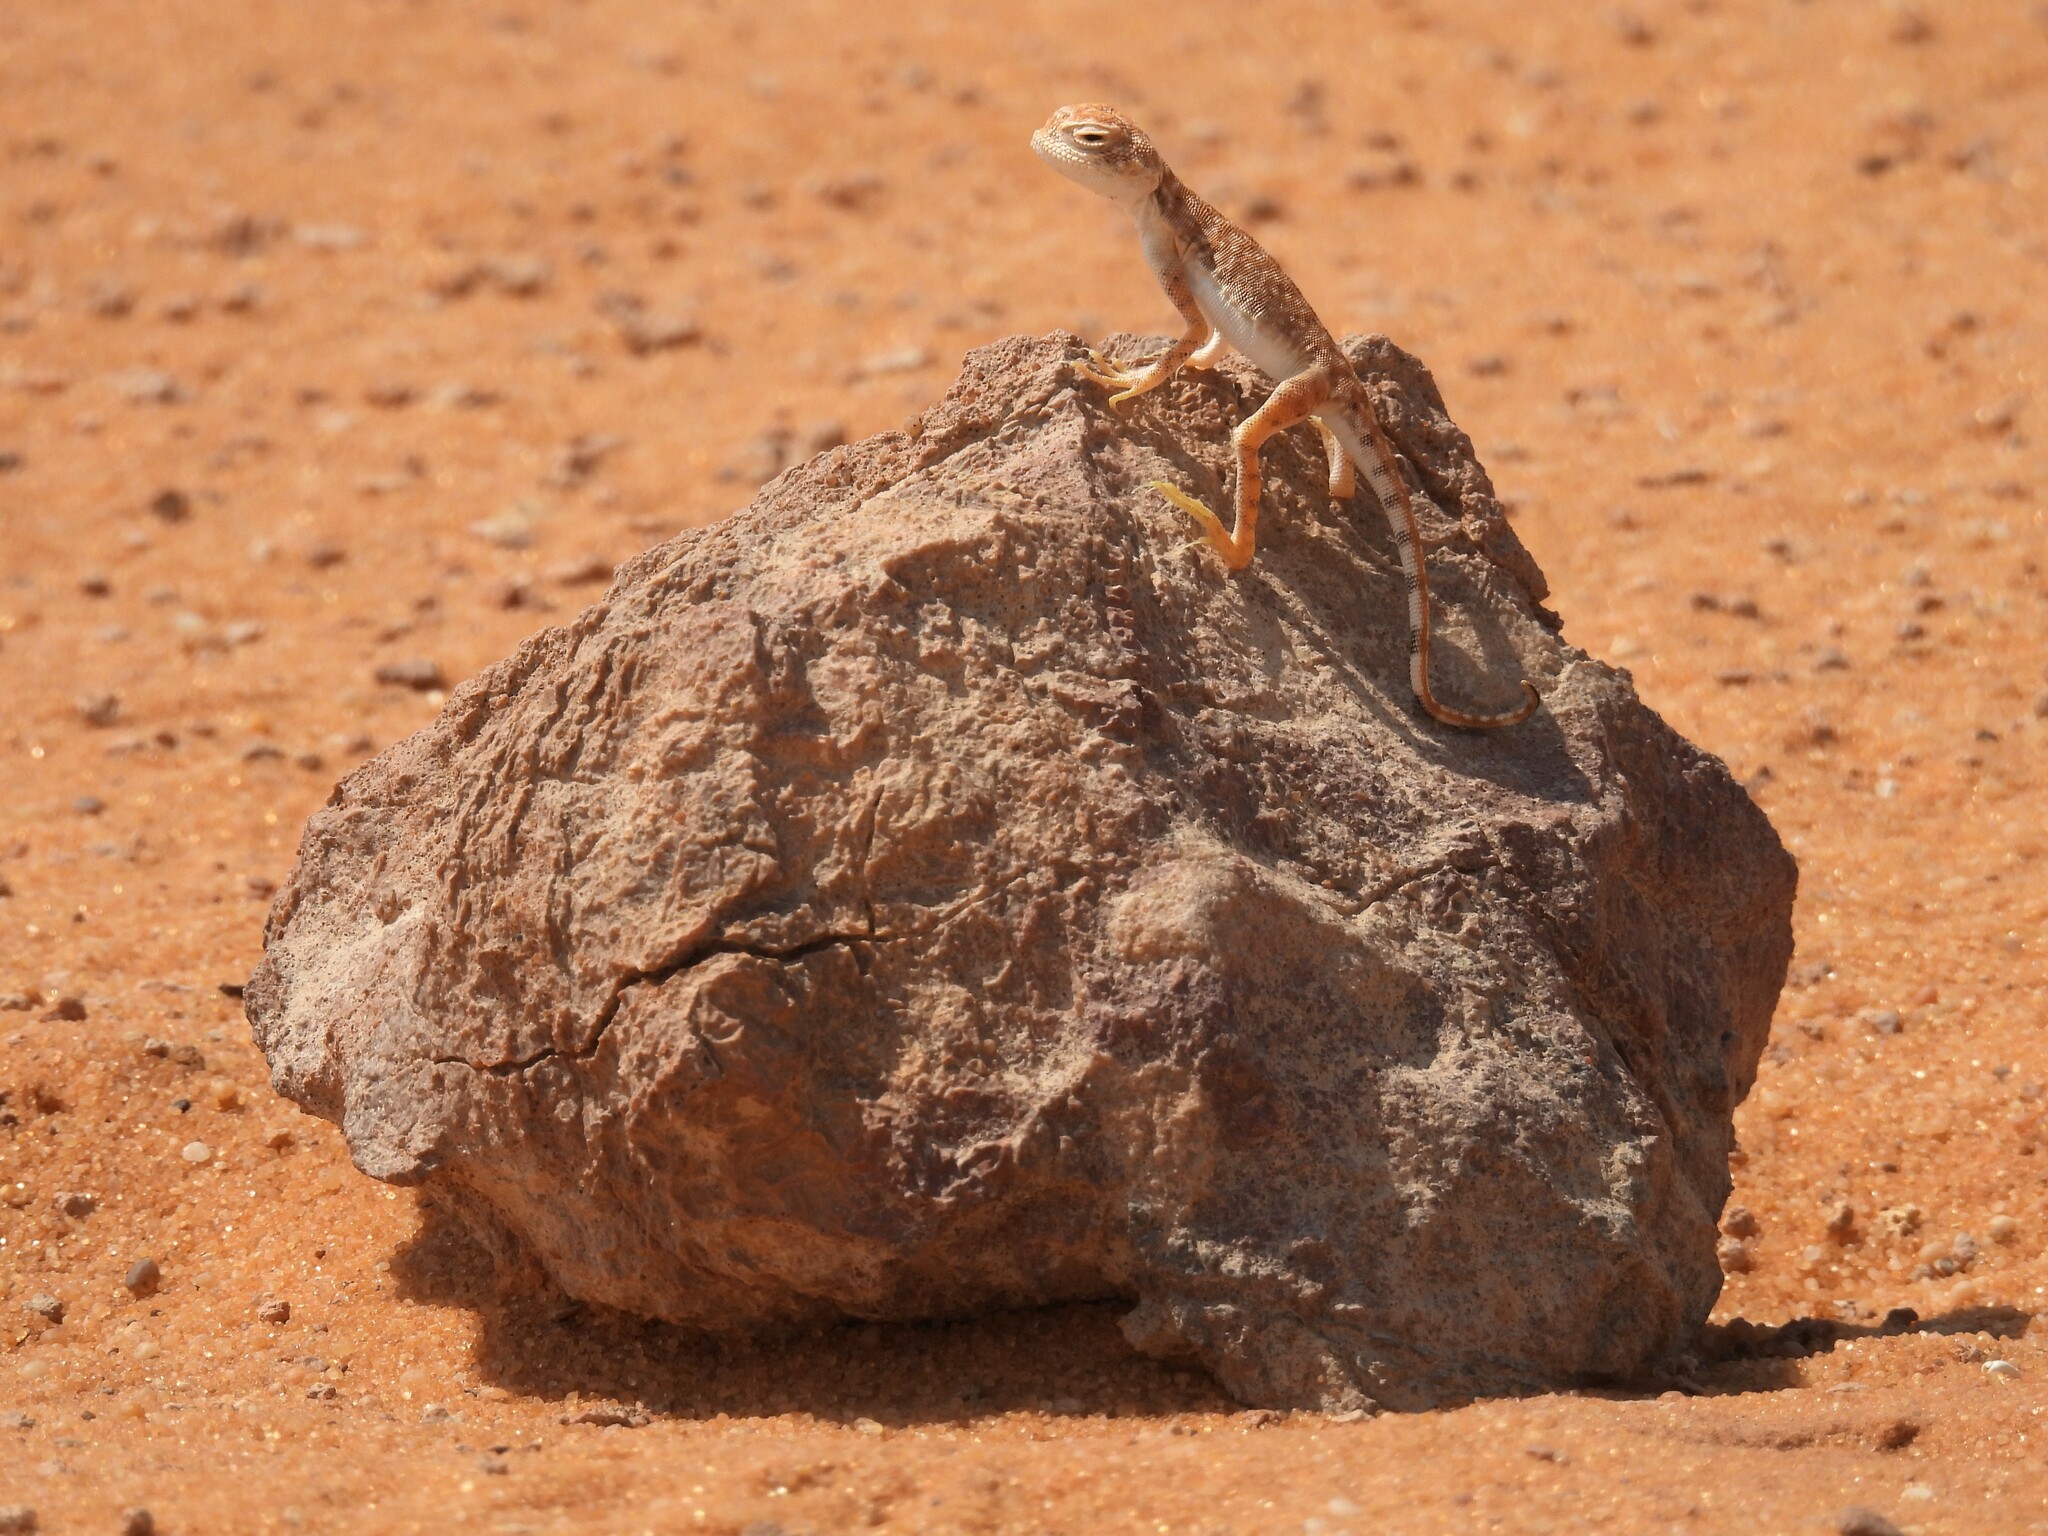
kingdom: Animalia
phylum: Chordata
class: Squamata
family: Agamidae
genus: Phrynocephalus
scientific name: Phrynocephalus arabicus
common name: Arabian toad-headed agama
